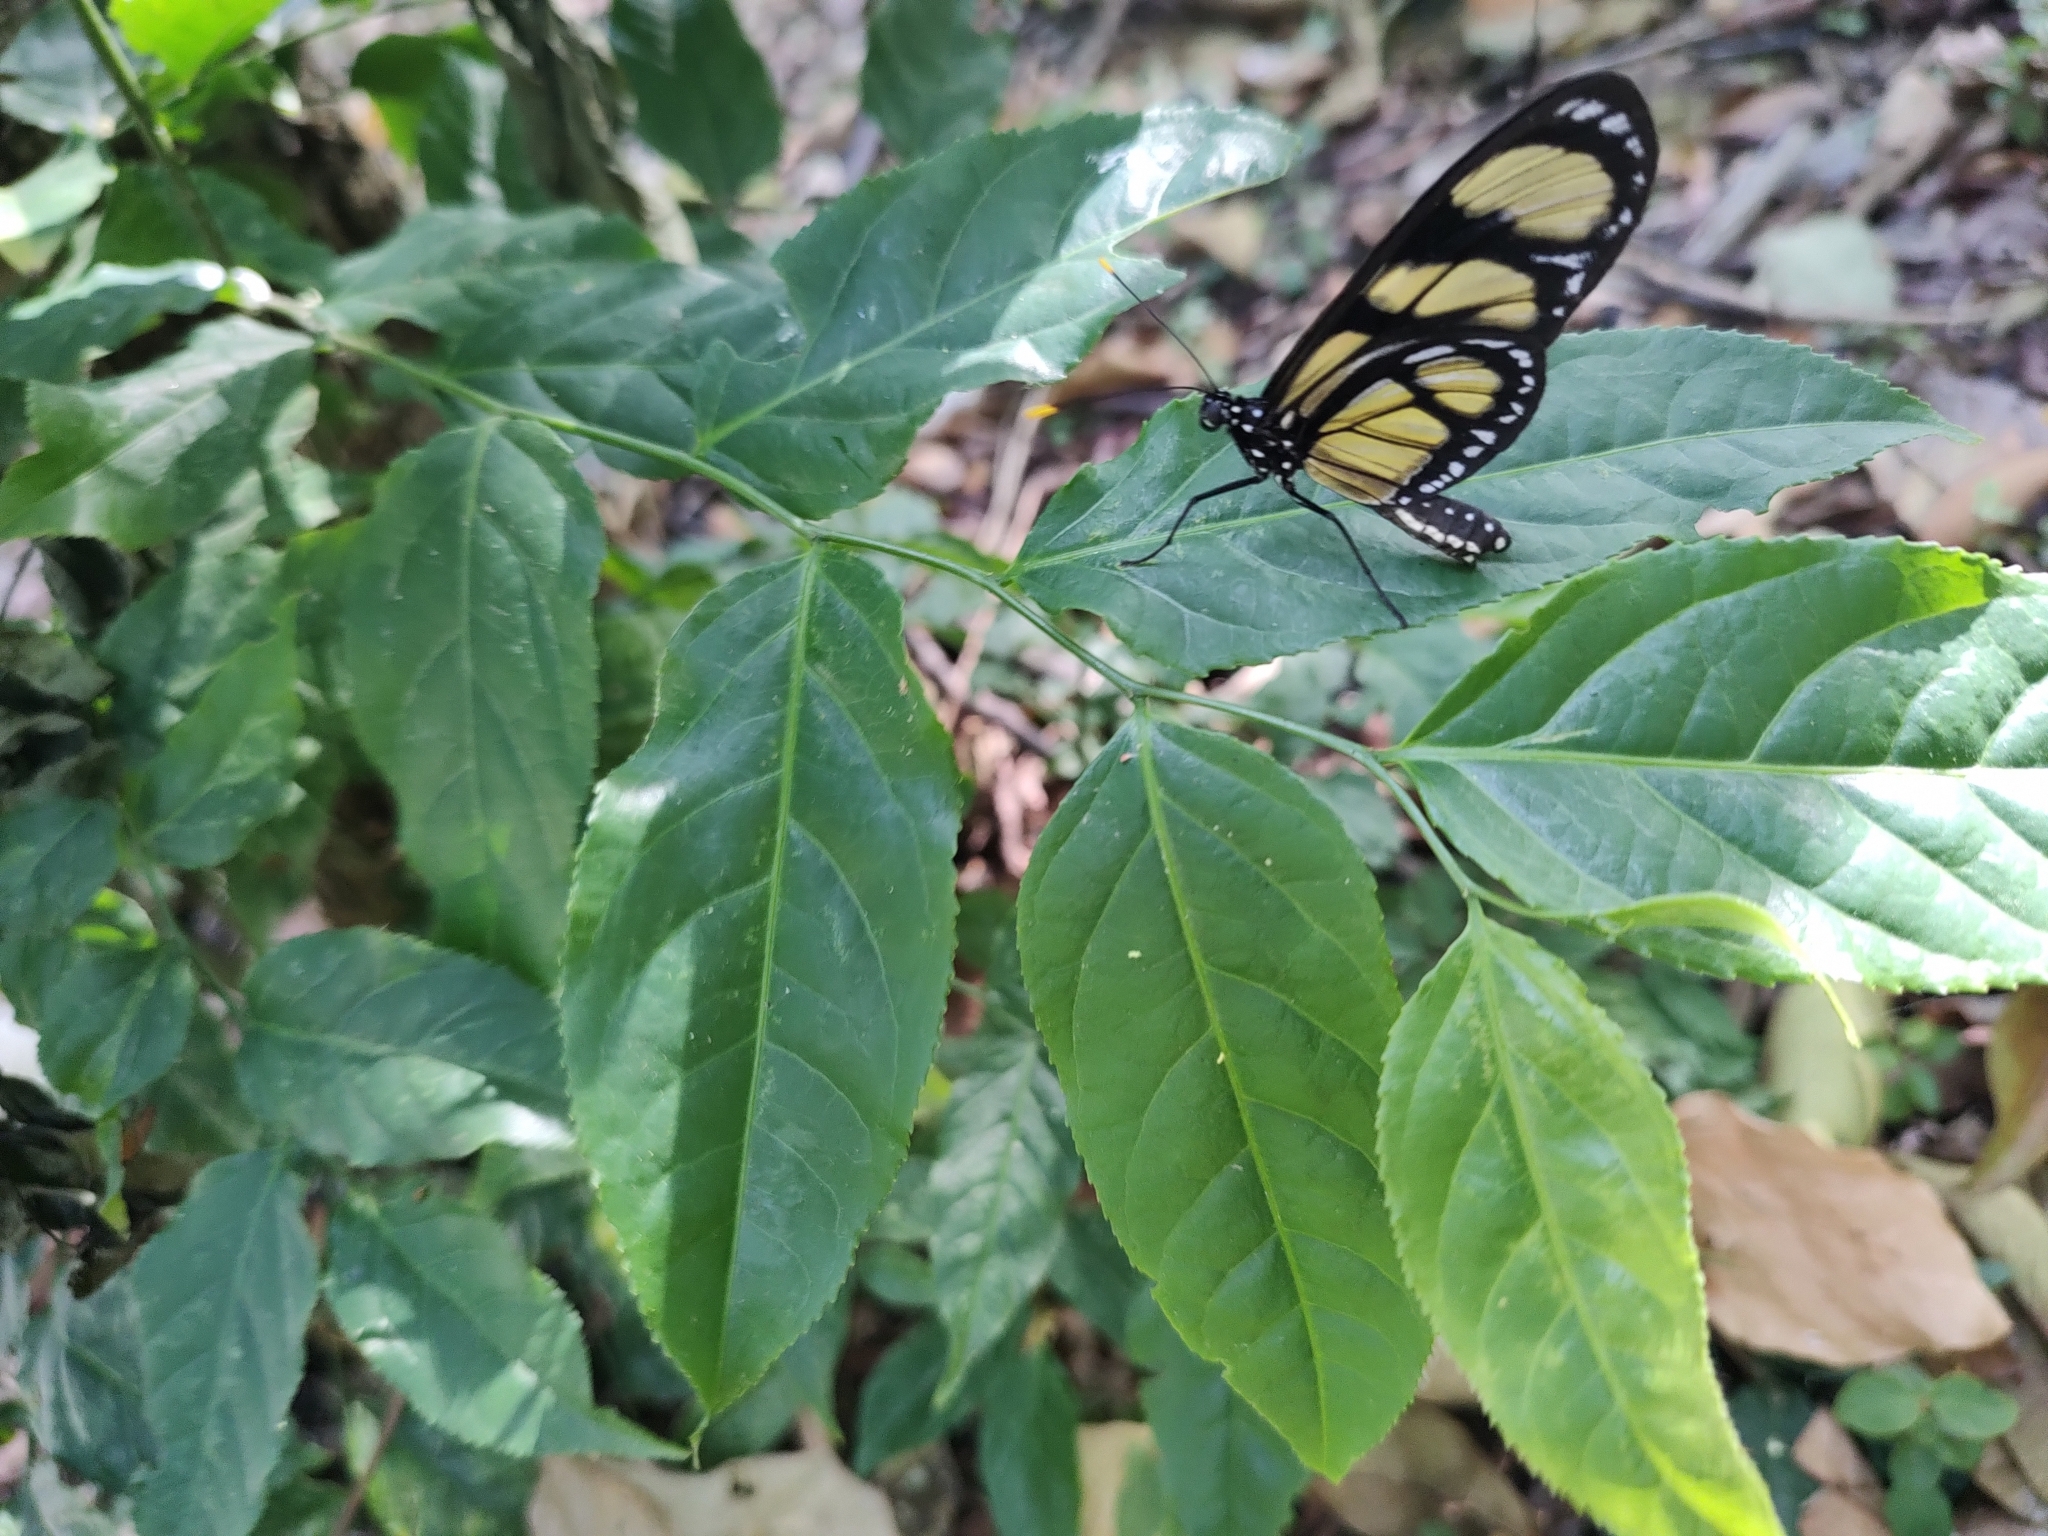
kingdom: Animalia
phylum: Arthropoda
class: Insecta
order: Lepidoptera
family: Nymphalidae
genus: Methona
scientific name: Methona themisto
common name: Themisto amberwing
